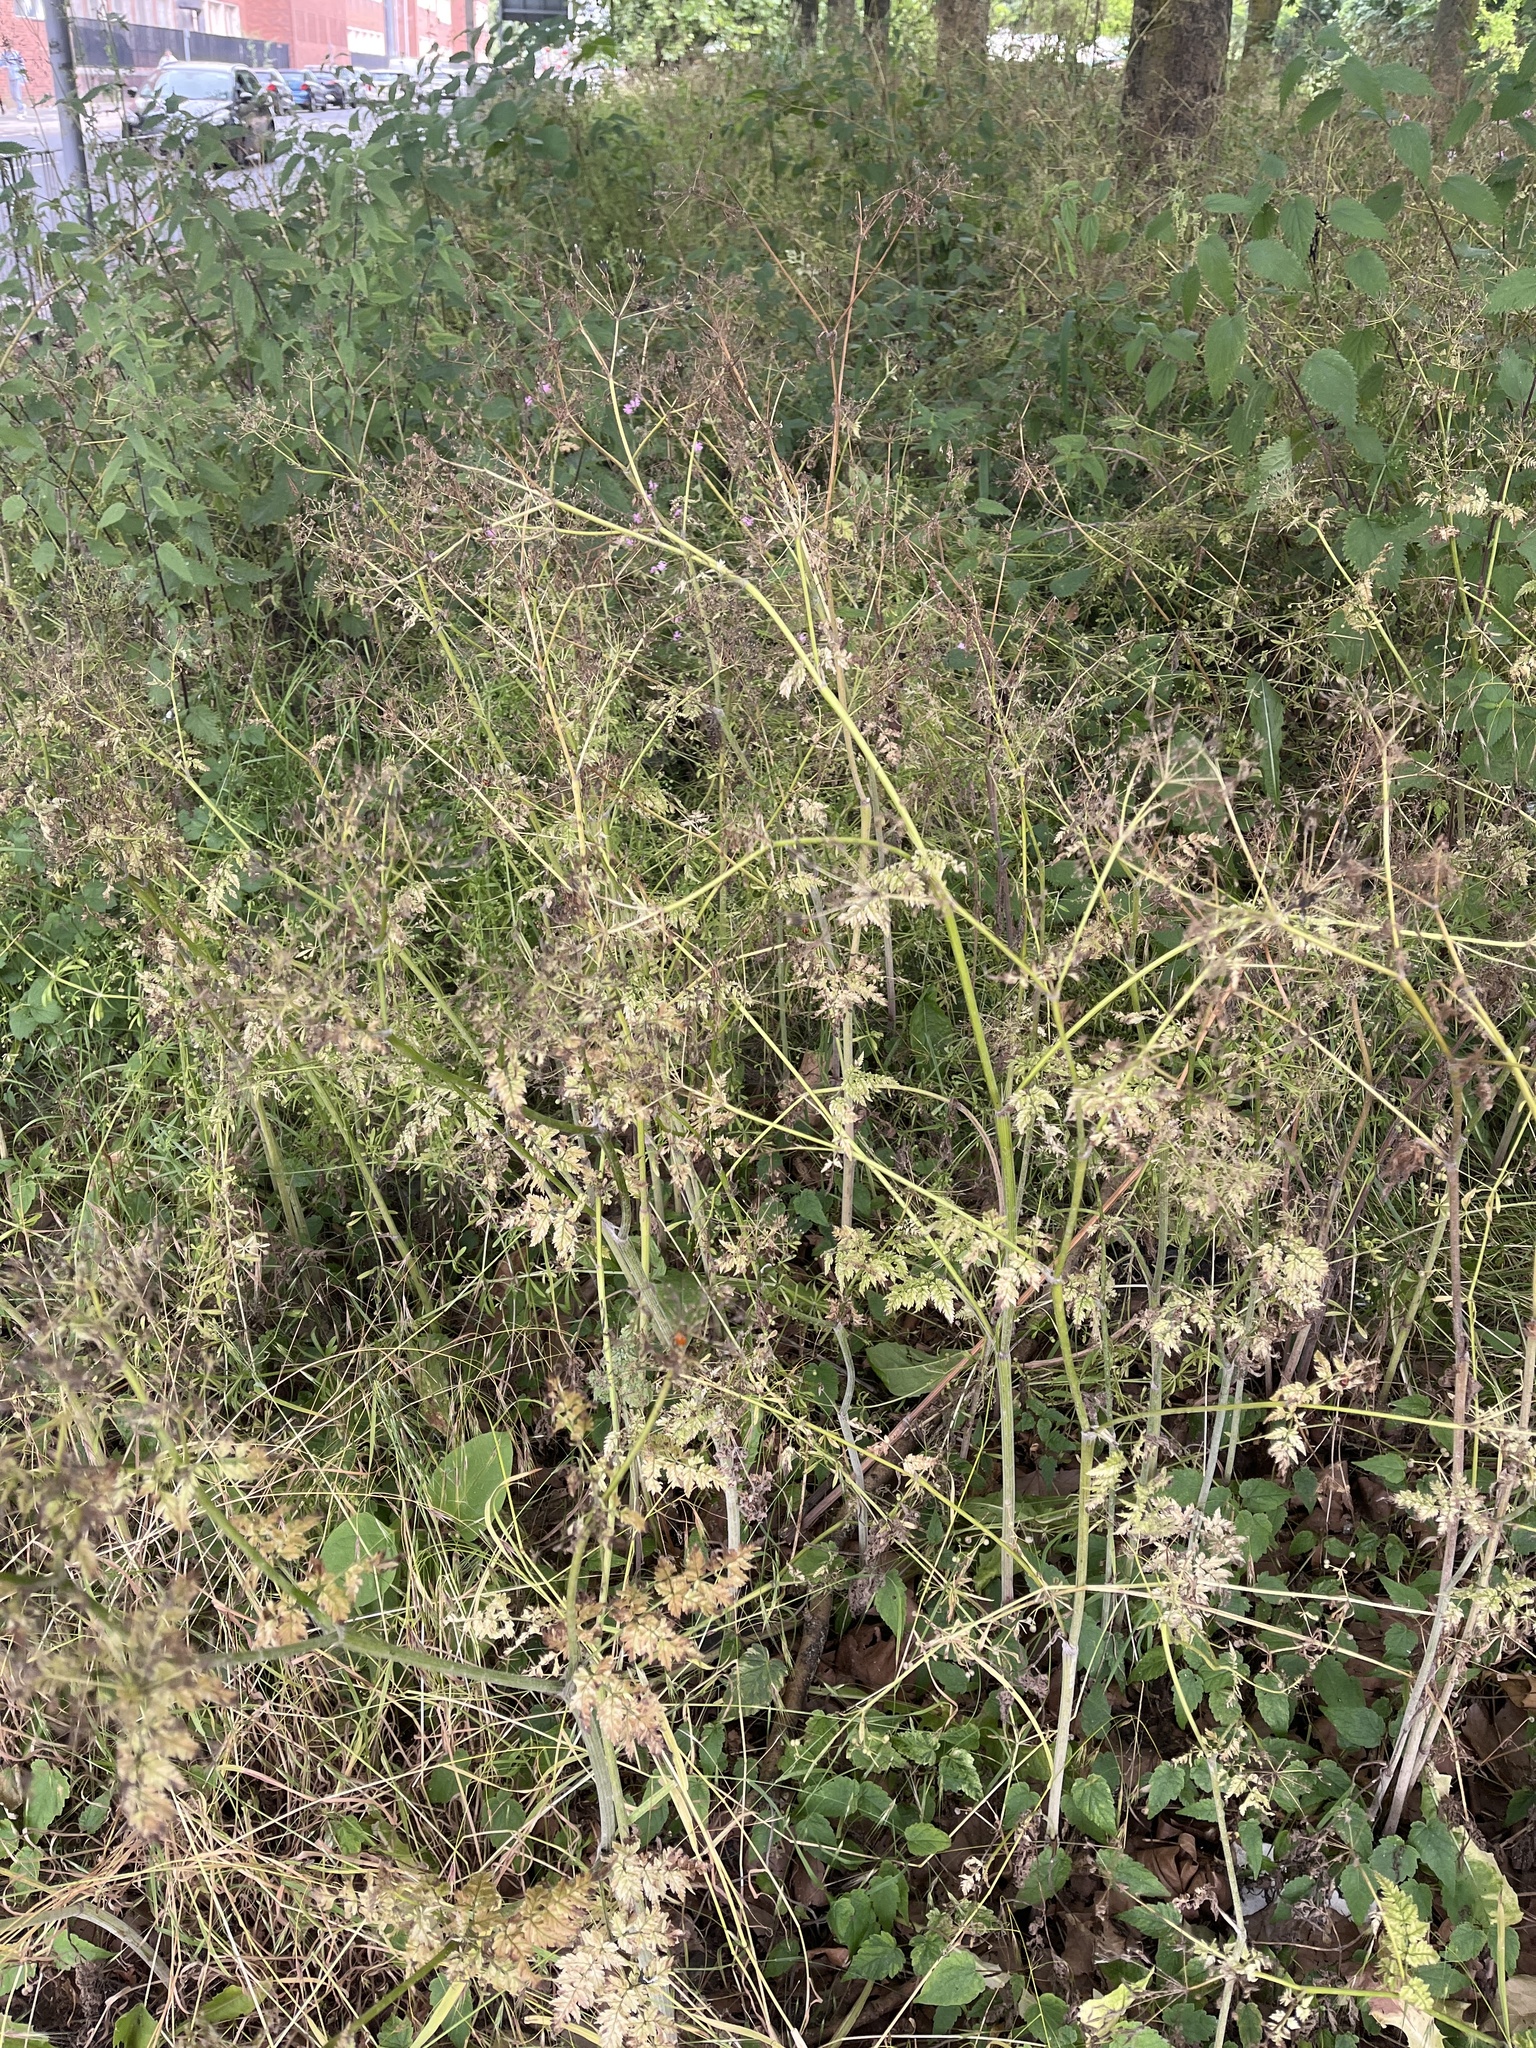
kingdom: Plantae
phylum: Tracheophyta
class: Magnoliopsida
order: Apiales
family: Apiaceae
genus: Anthriscus
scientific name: Anthriscus sylvestris
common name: Cow parsley
